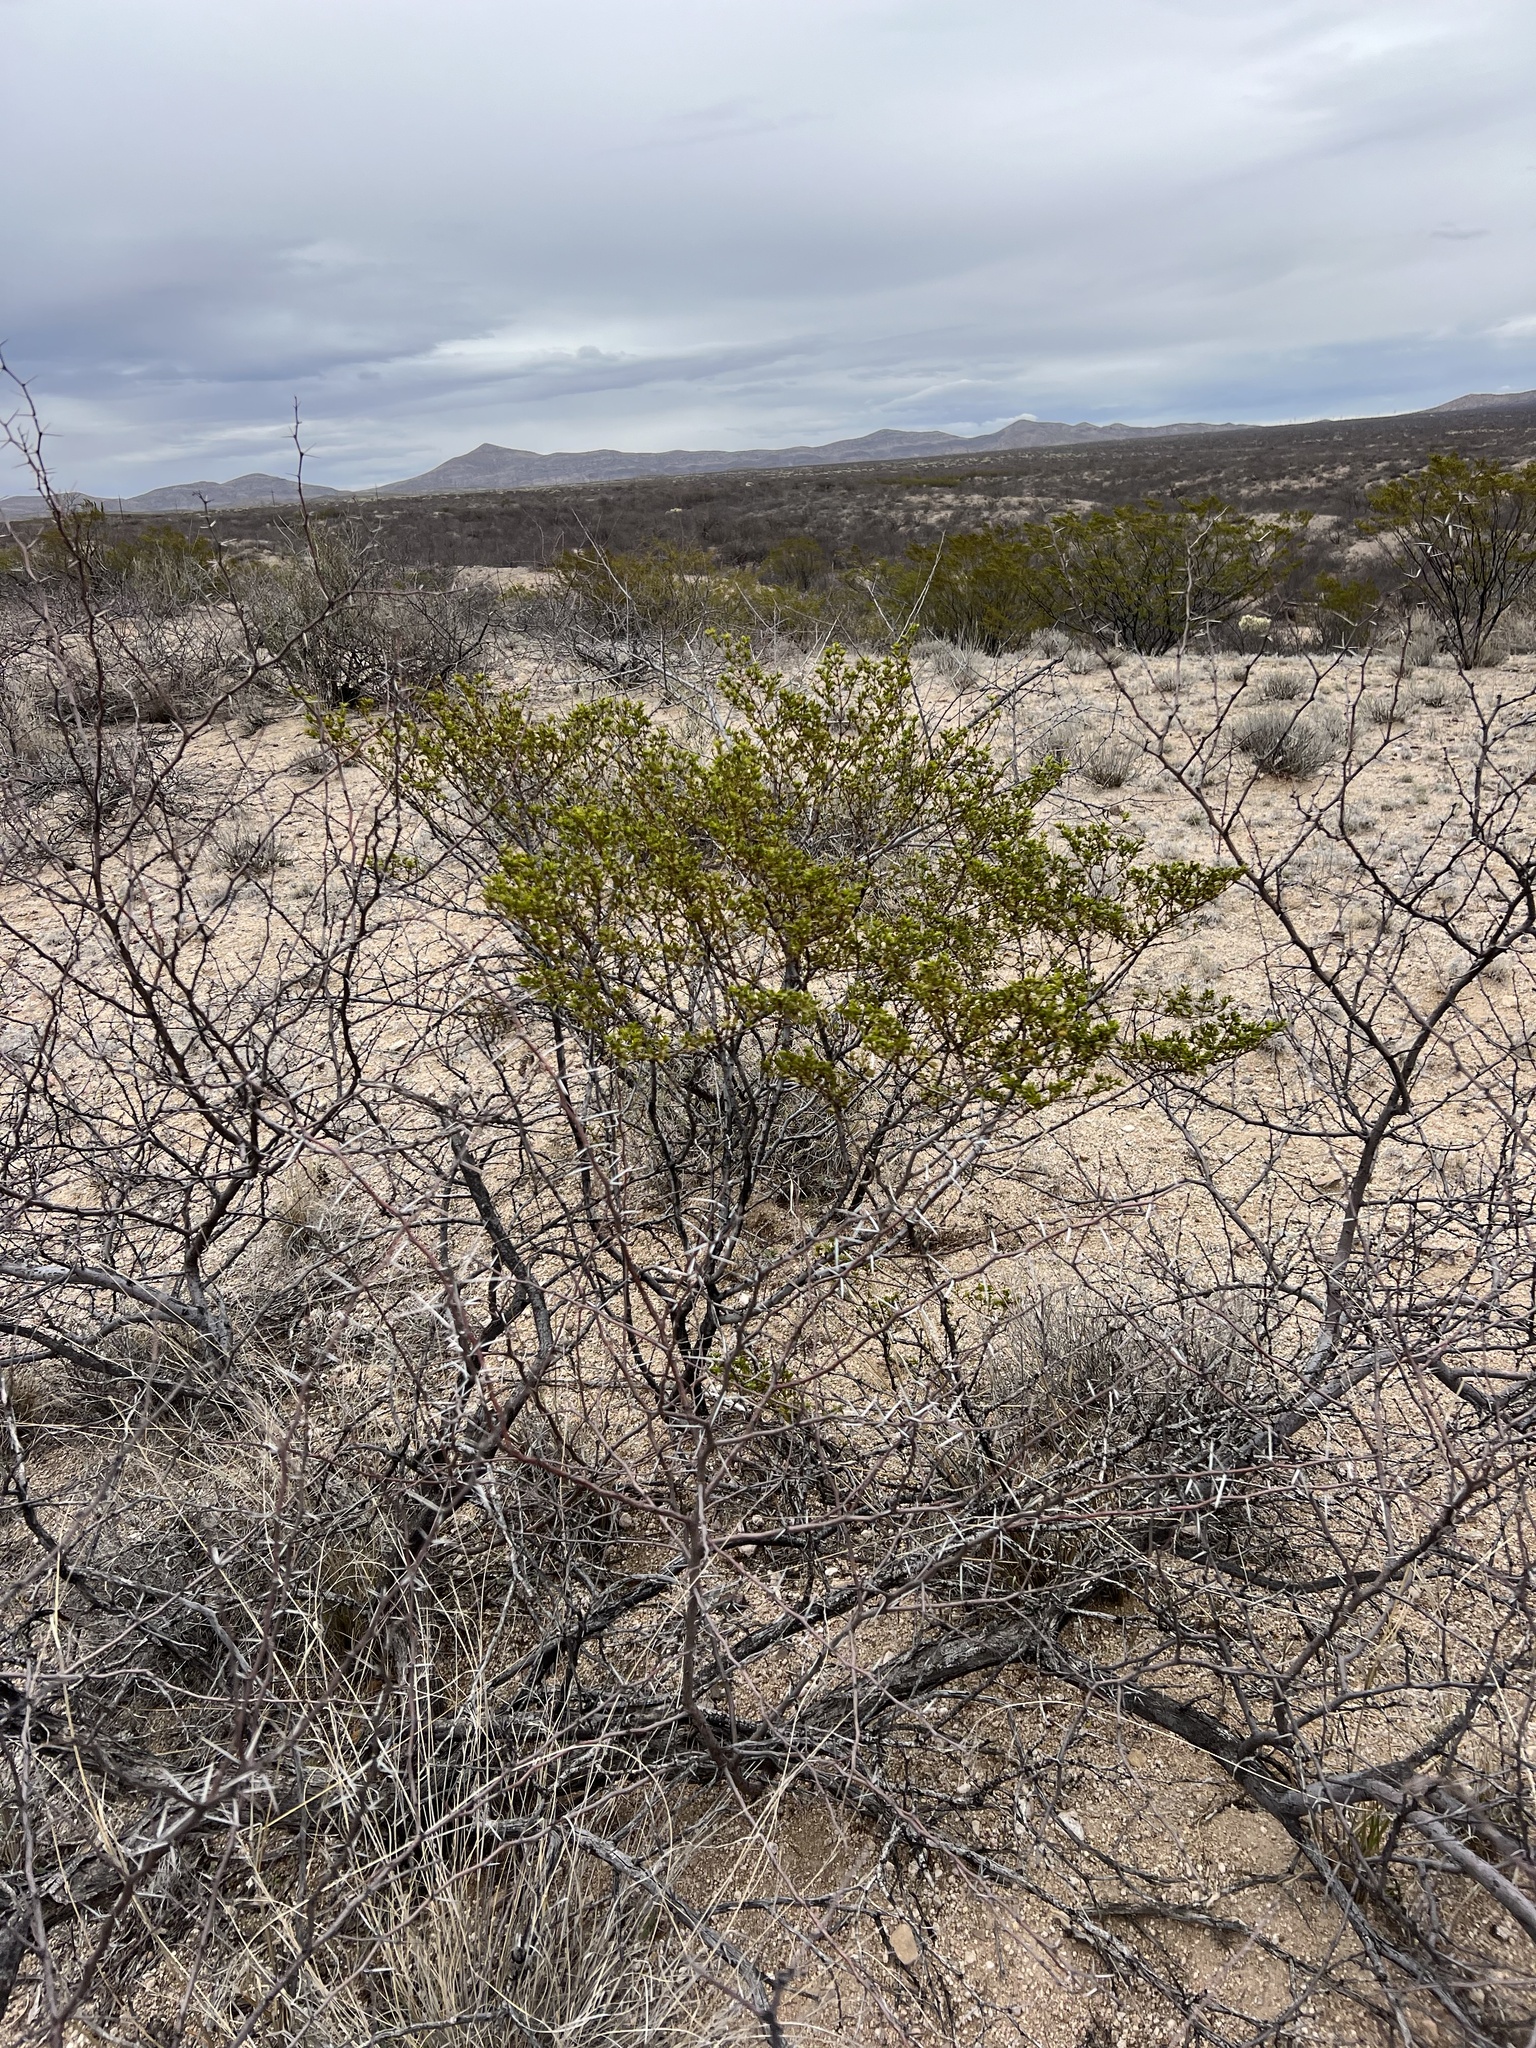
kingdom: Plantae
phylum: Tracheophyta
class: Magnoliopsida
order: Zygophyllales
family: Zygophyllaceae
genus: Larrea
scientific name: Larrea tridentata
